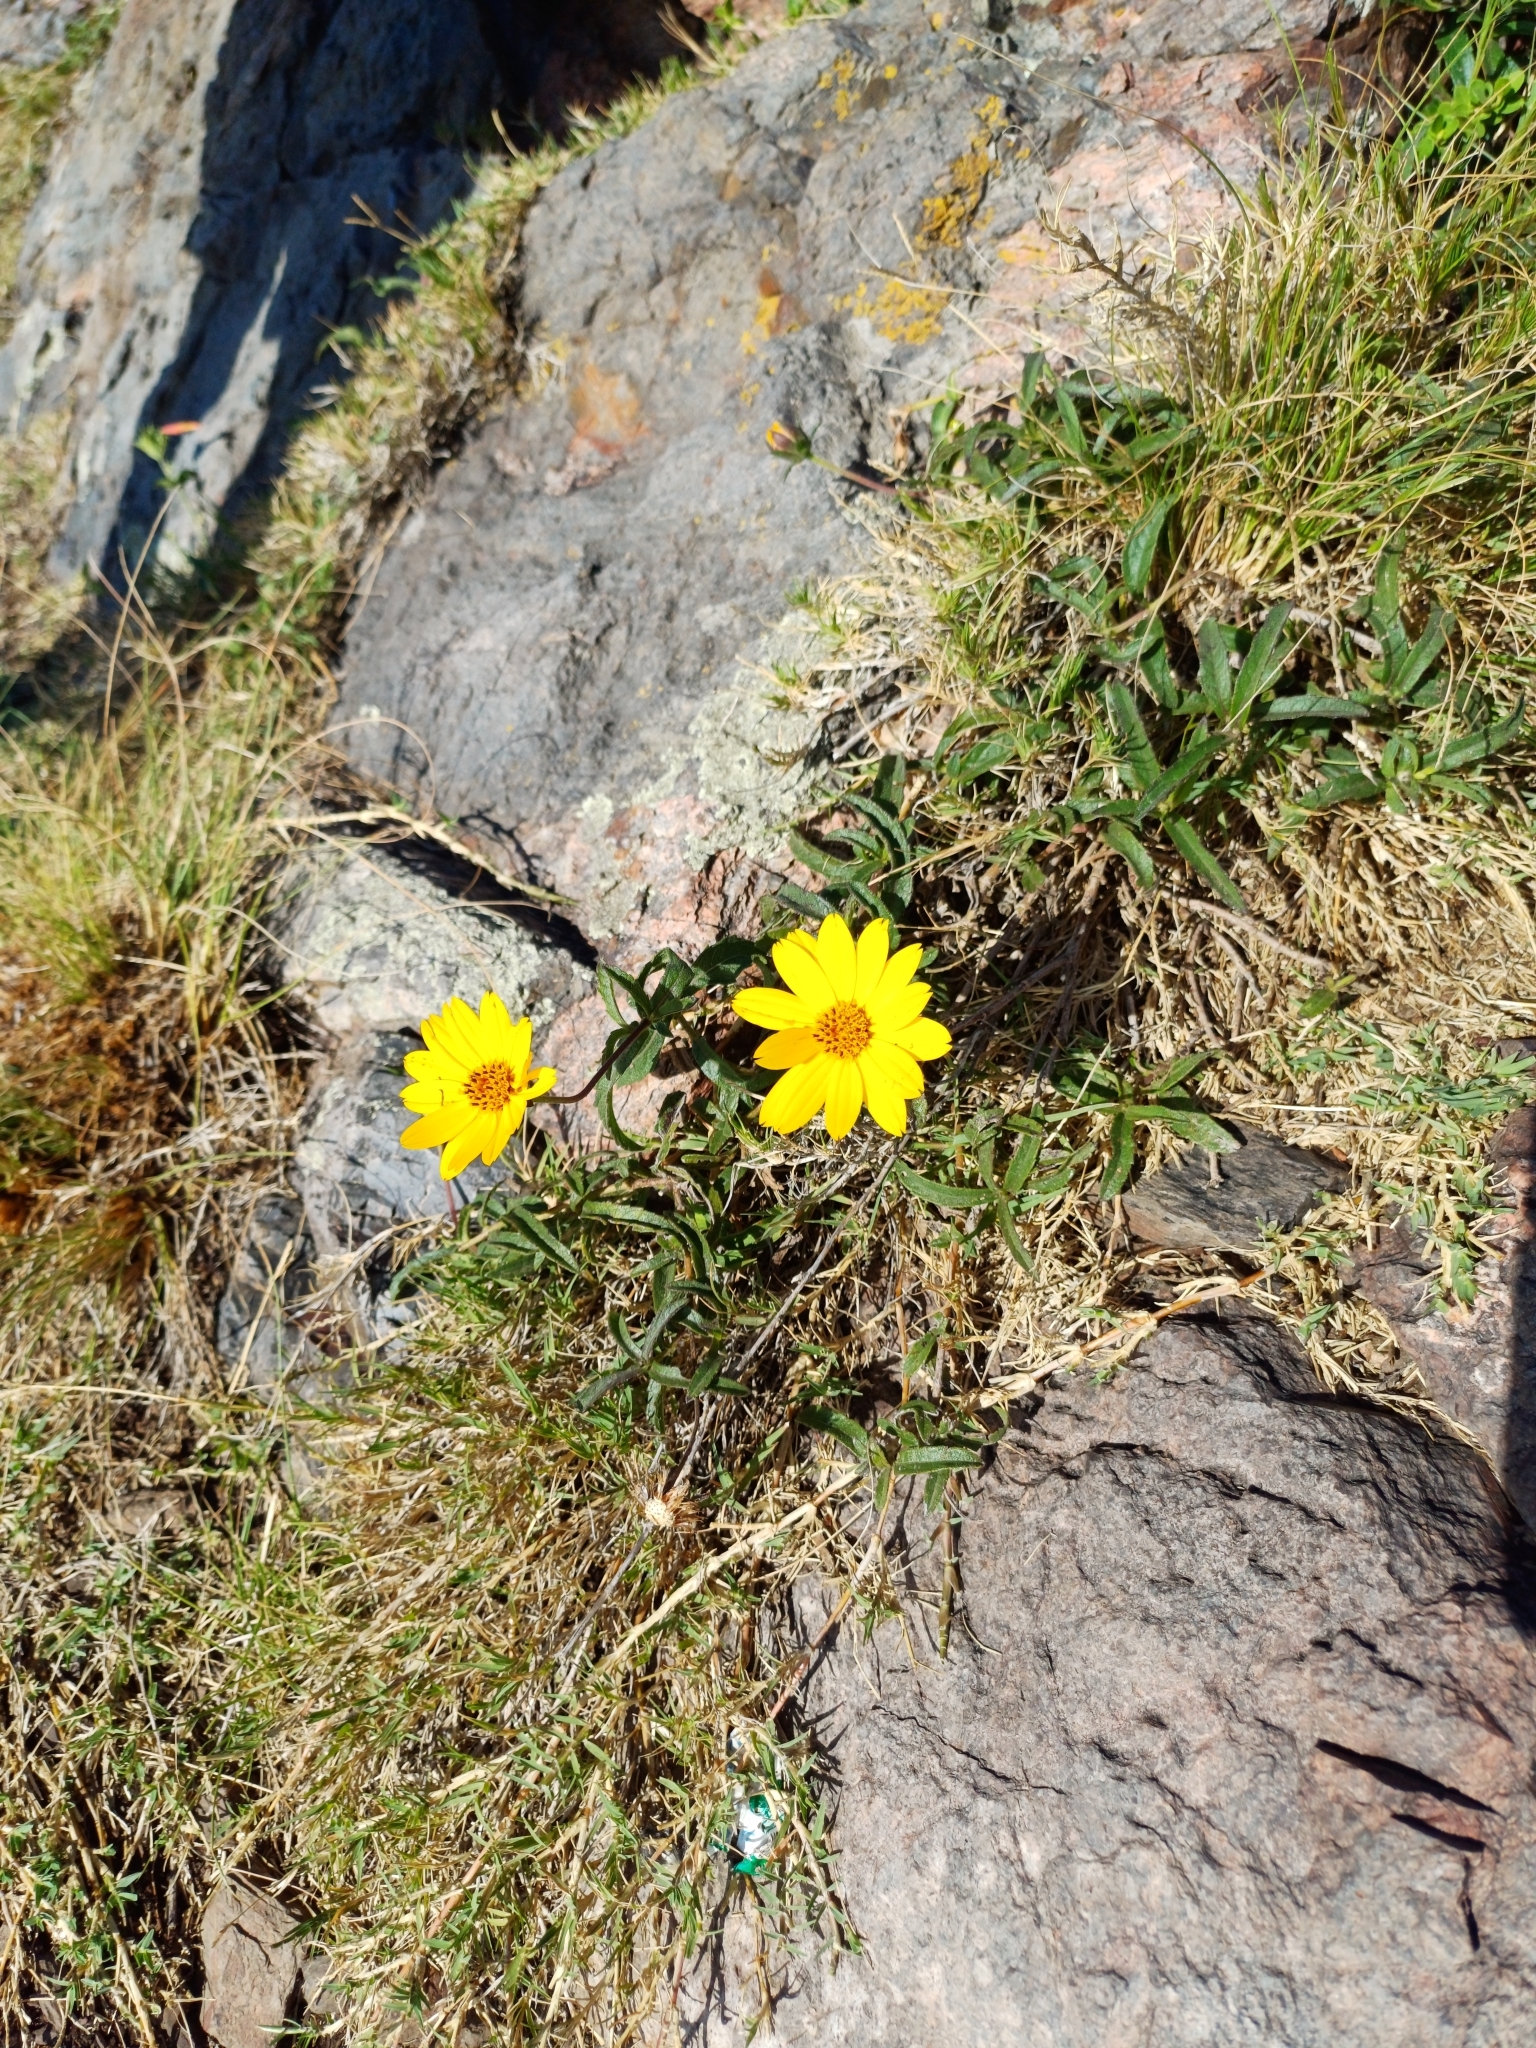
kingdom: Plantae
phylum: Tracheophyta
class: Magnoliopsida
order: Asterales
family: Asteraceae
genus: Wedelia
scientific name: Wedelia montevidensis
